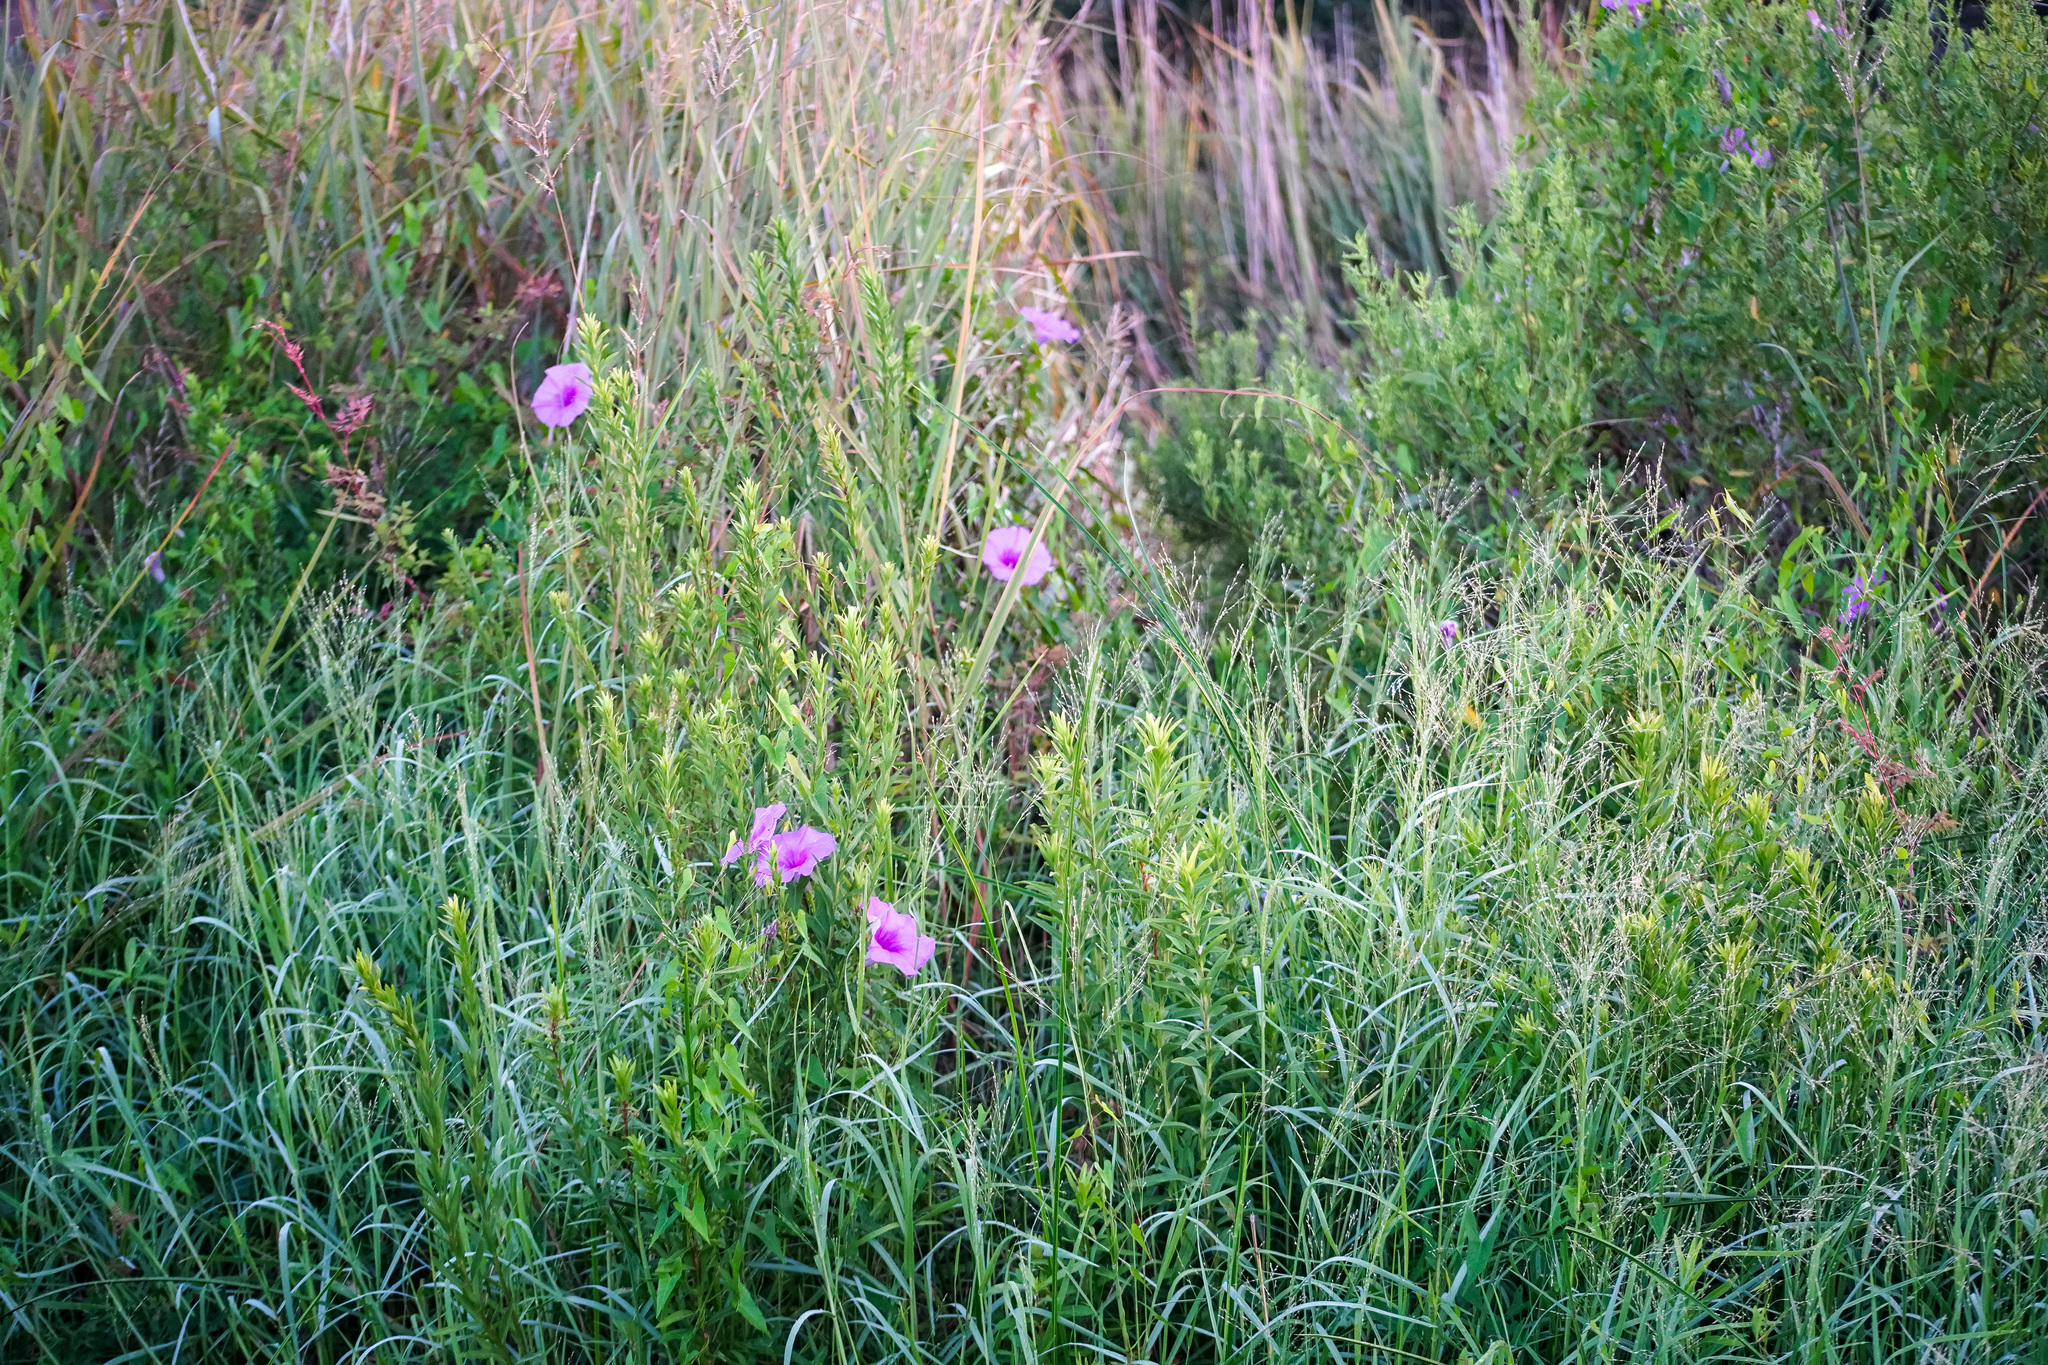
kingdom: Plantae
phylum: Tracheophyta
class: Magnoliopsida
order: Solanales
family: Convolvulaceae
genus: Ipomoea
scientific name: Ipomoea sagittata
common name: Saltmarsh morning glory
